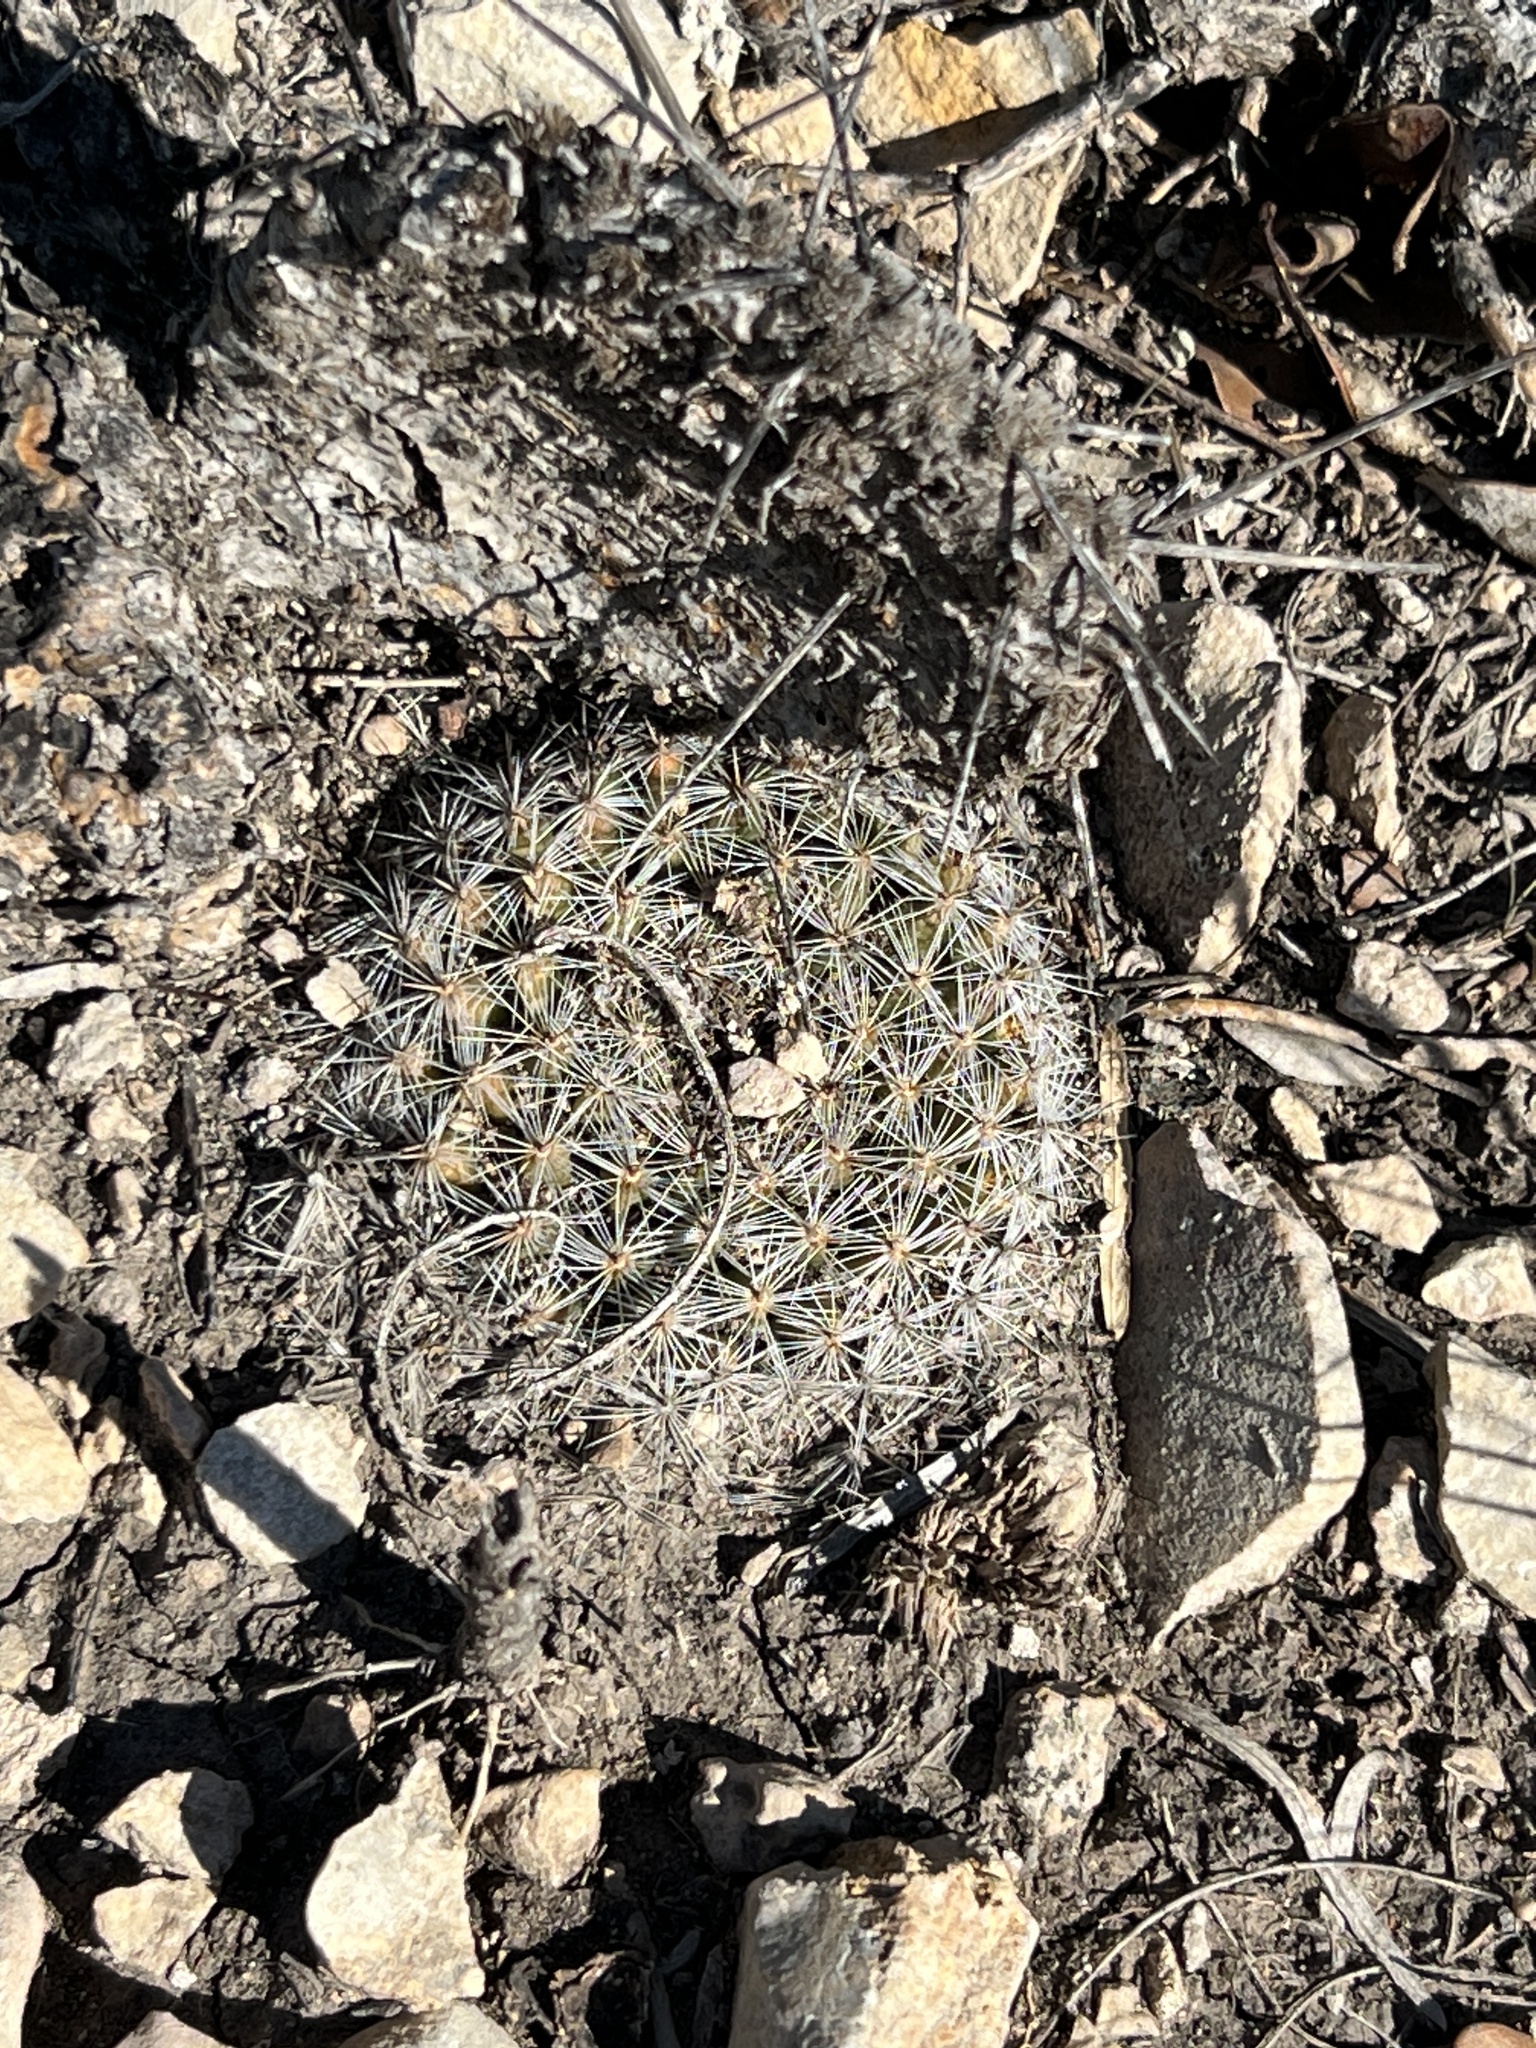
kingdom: Plantae
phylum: Tracheophyta
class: Magnoliopsida
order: Caryophyllales
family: Cactaceae
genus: Mammillaria
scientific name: Mammillaria heyderi
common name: Little nipple cactus
